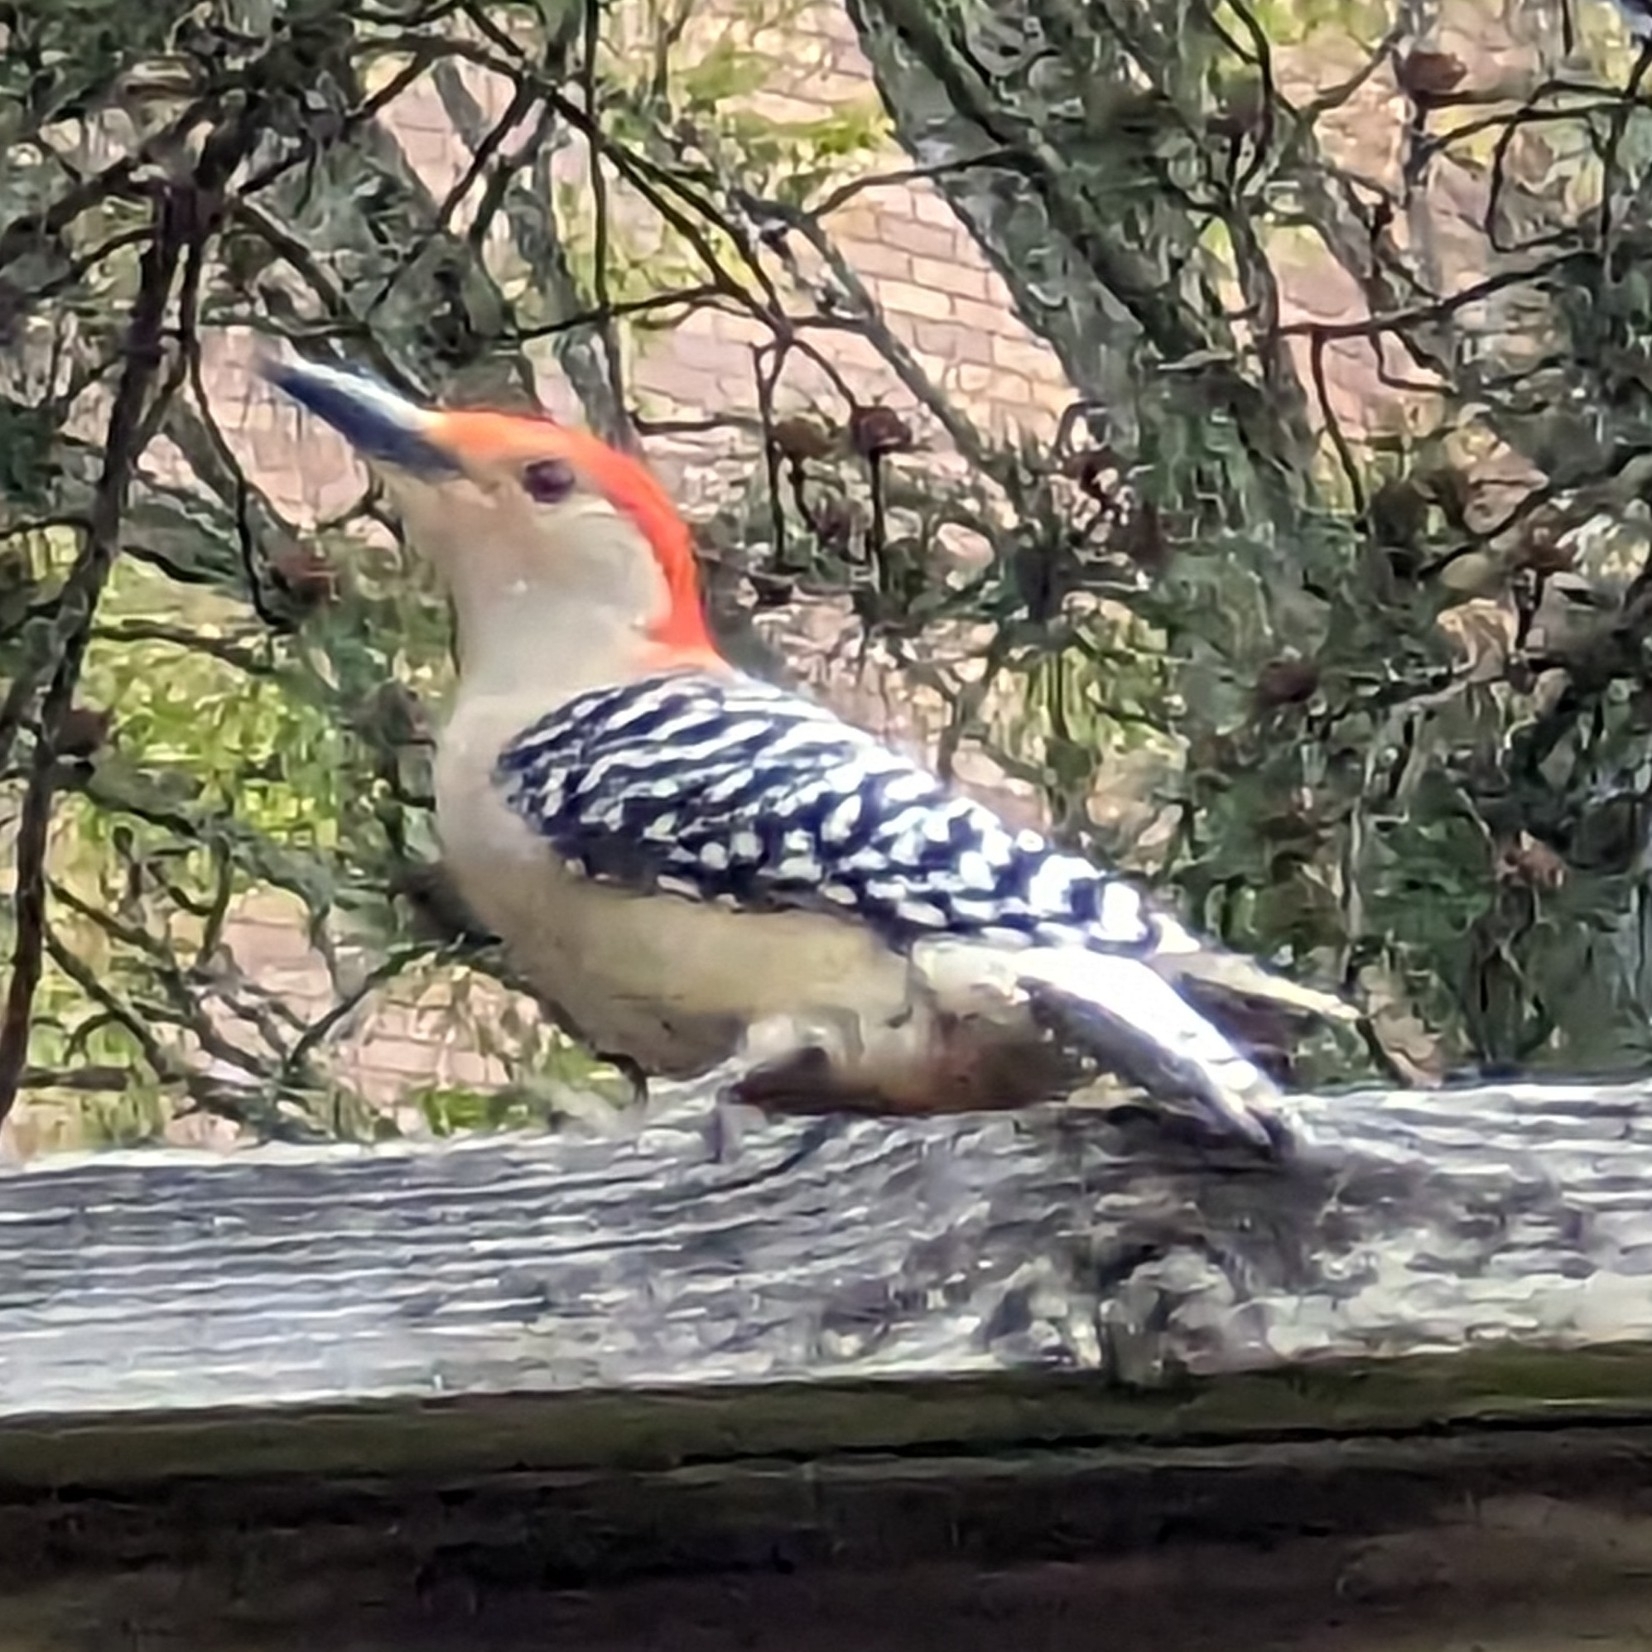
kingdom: Animalia
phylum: Chordata
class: Aves
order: Piciformes
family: Picidae
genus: Melanerpes
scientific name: Melanerpes carolinus
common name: Red-bellied woodpecker
